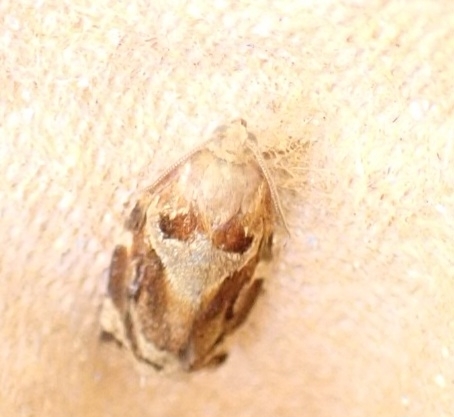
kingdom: Animalia
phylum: Arthropoda
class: Insecta
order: Lepidoptera
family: Tortricidae
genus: Archips
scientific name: Archips xylosteana
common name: Variegated golden tortrix
